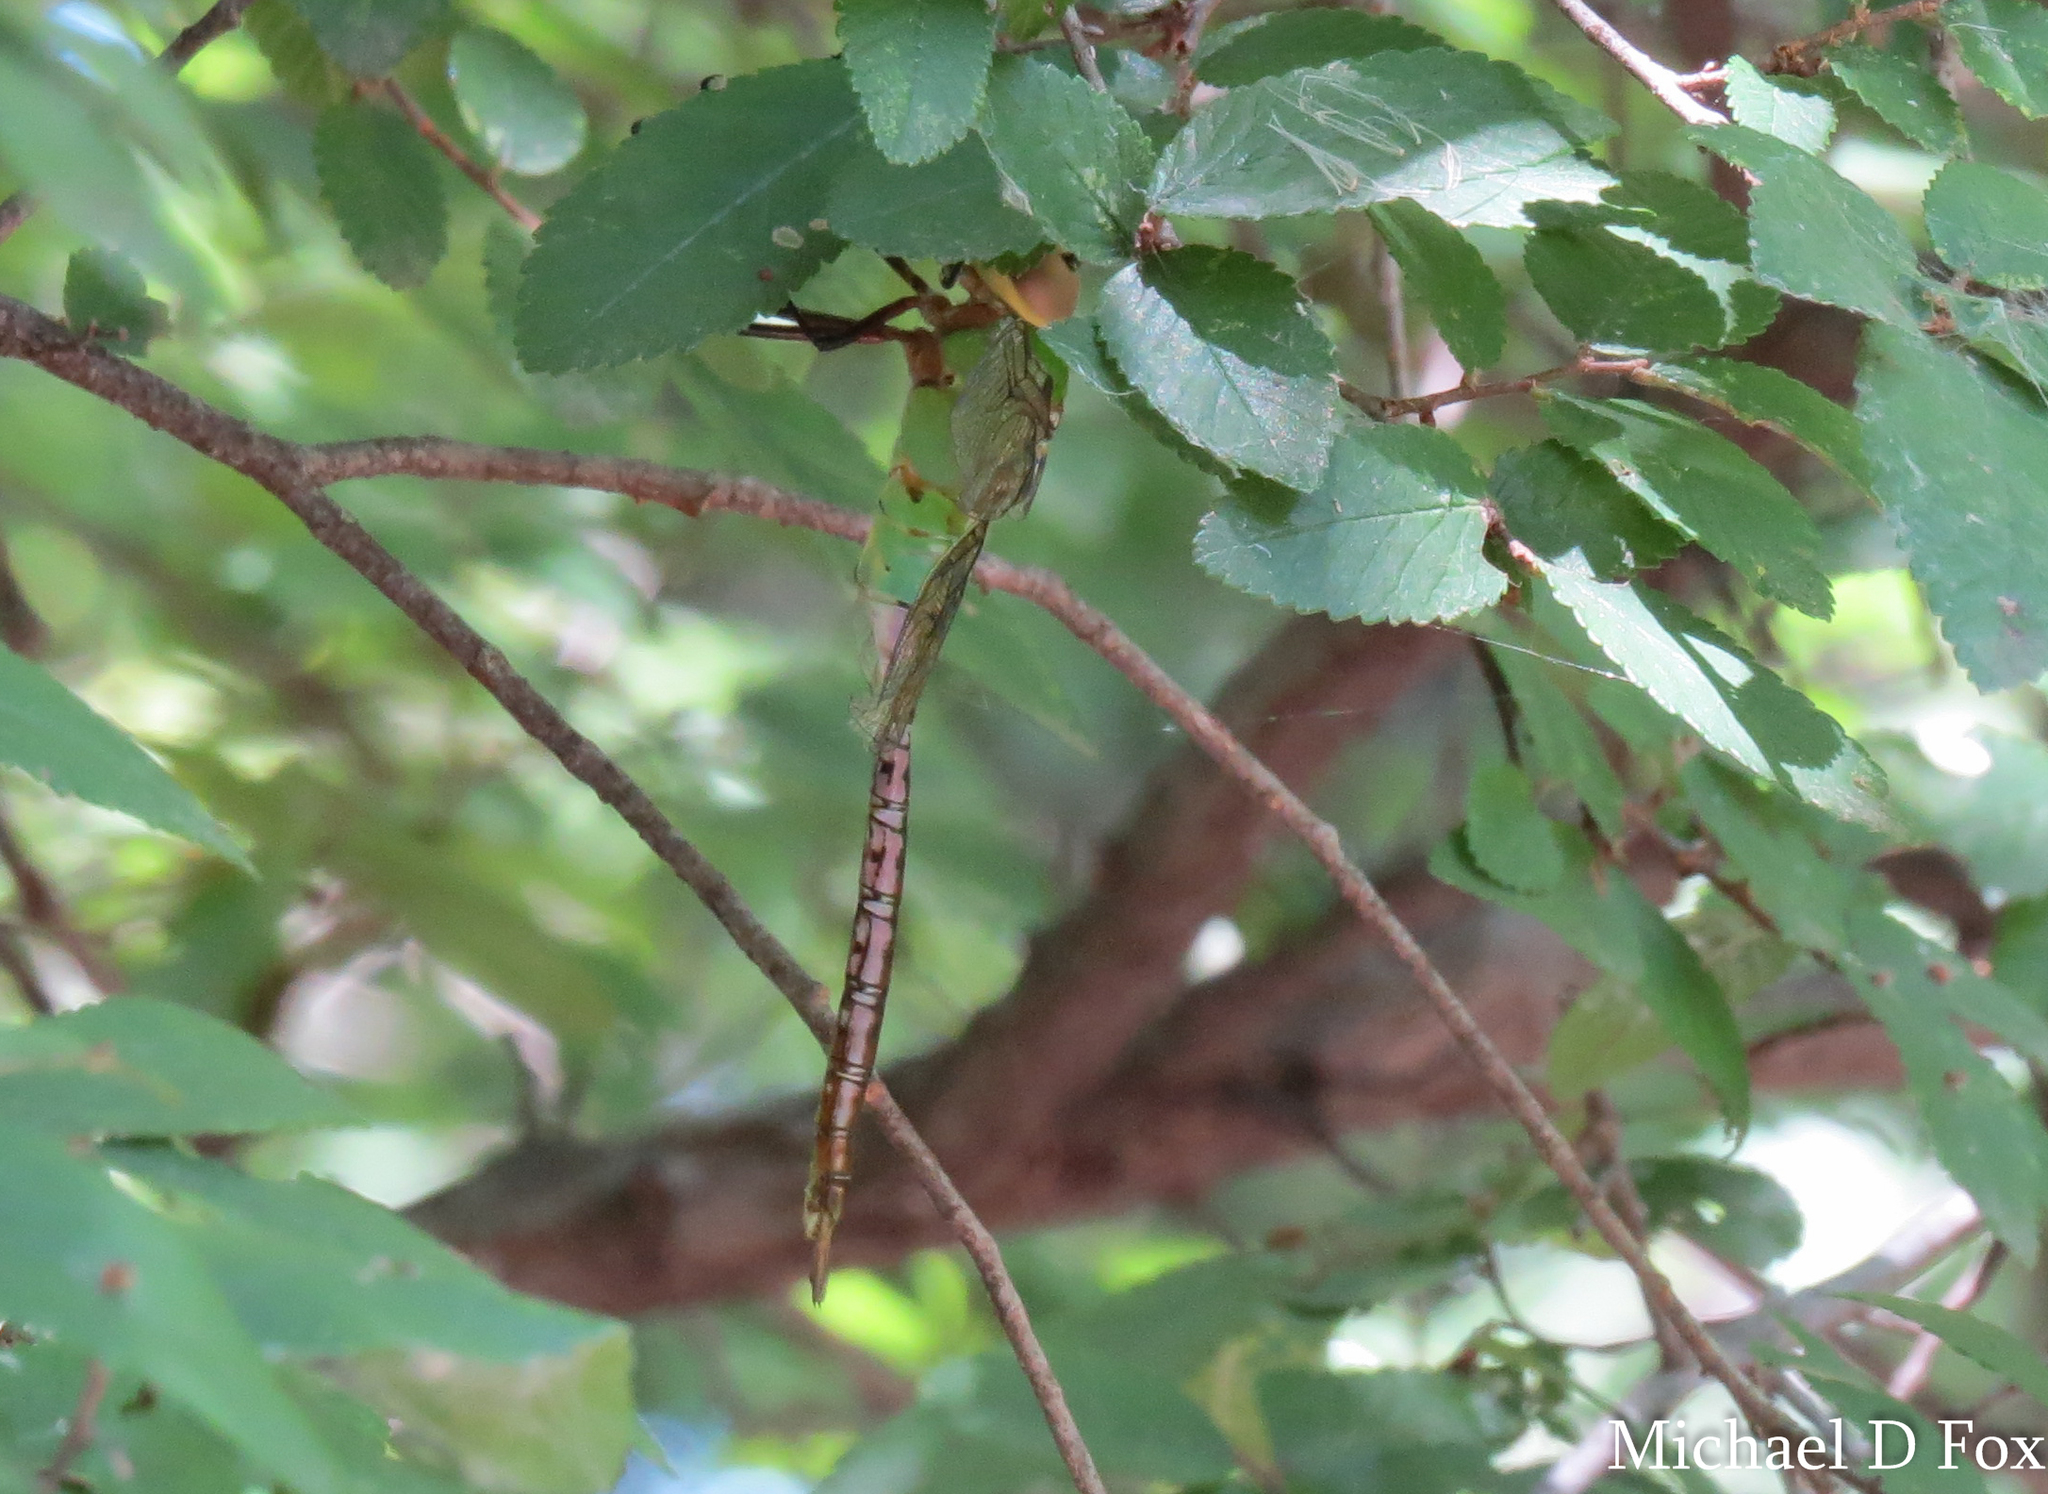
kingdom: Animalia
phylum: Arthropoda
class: Insecta
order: Odonata
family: Aeshnidae
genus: Anax
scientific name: Anax junius
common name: Common green darner
